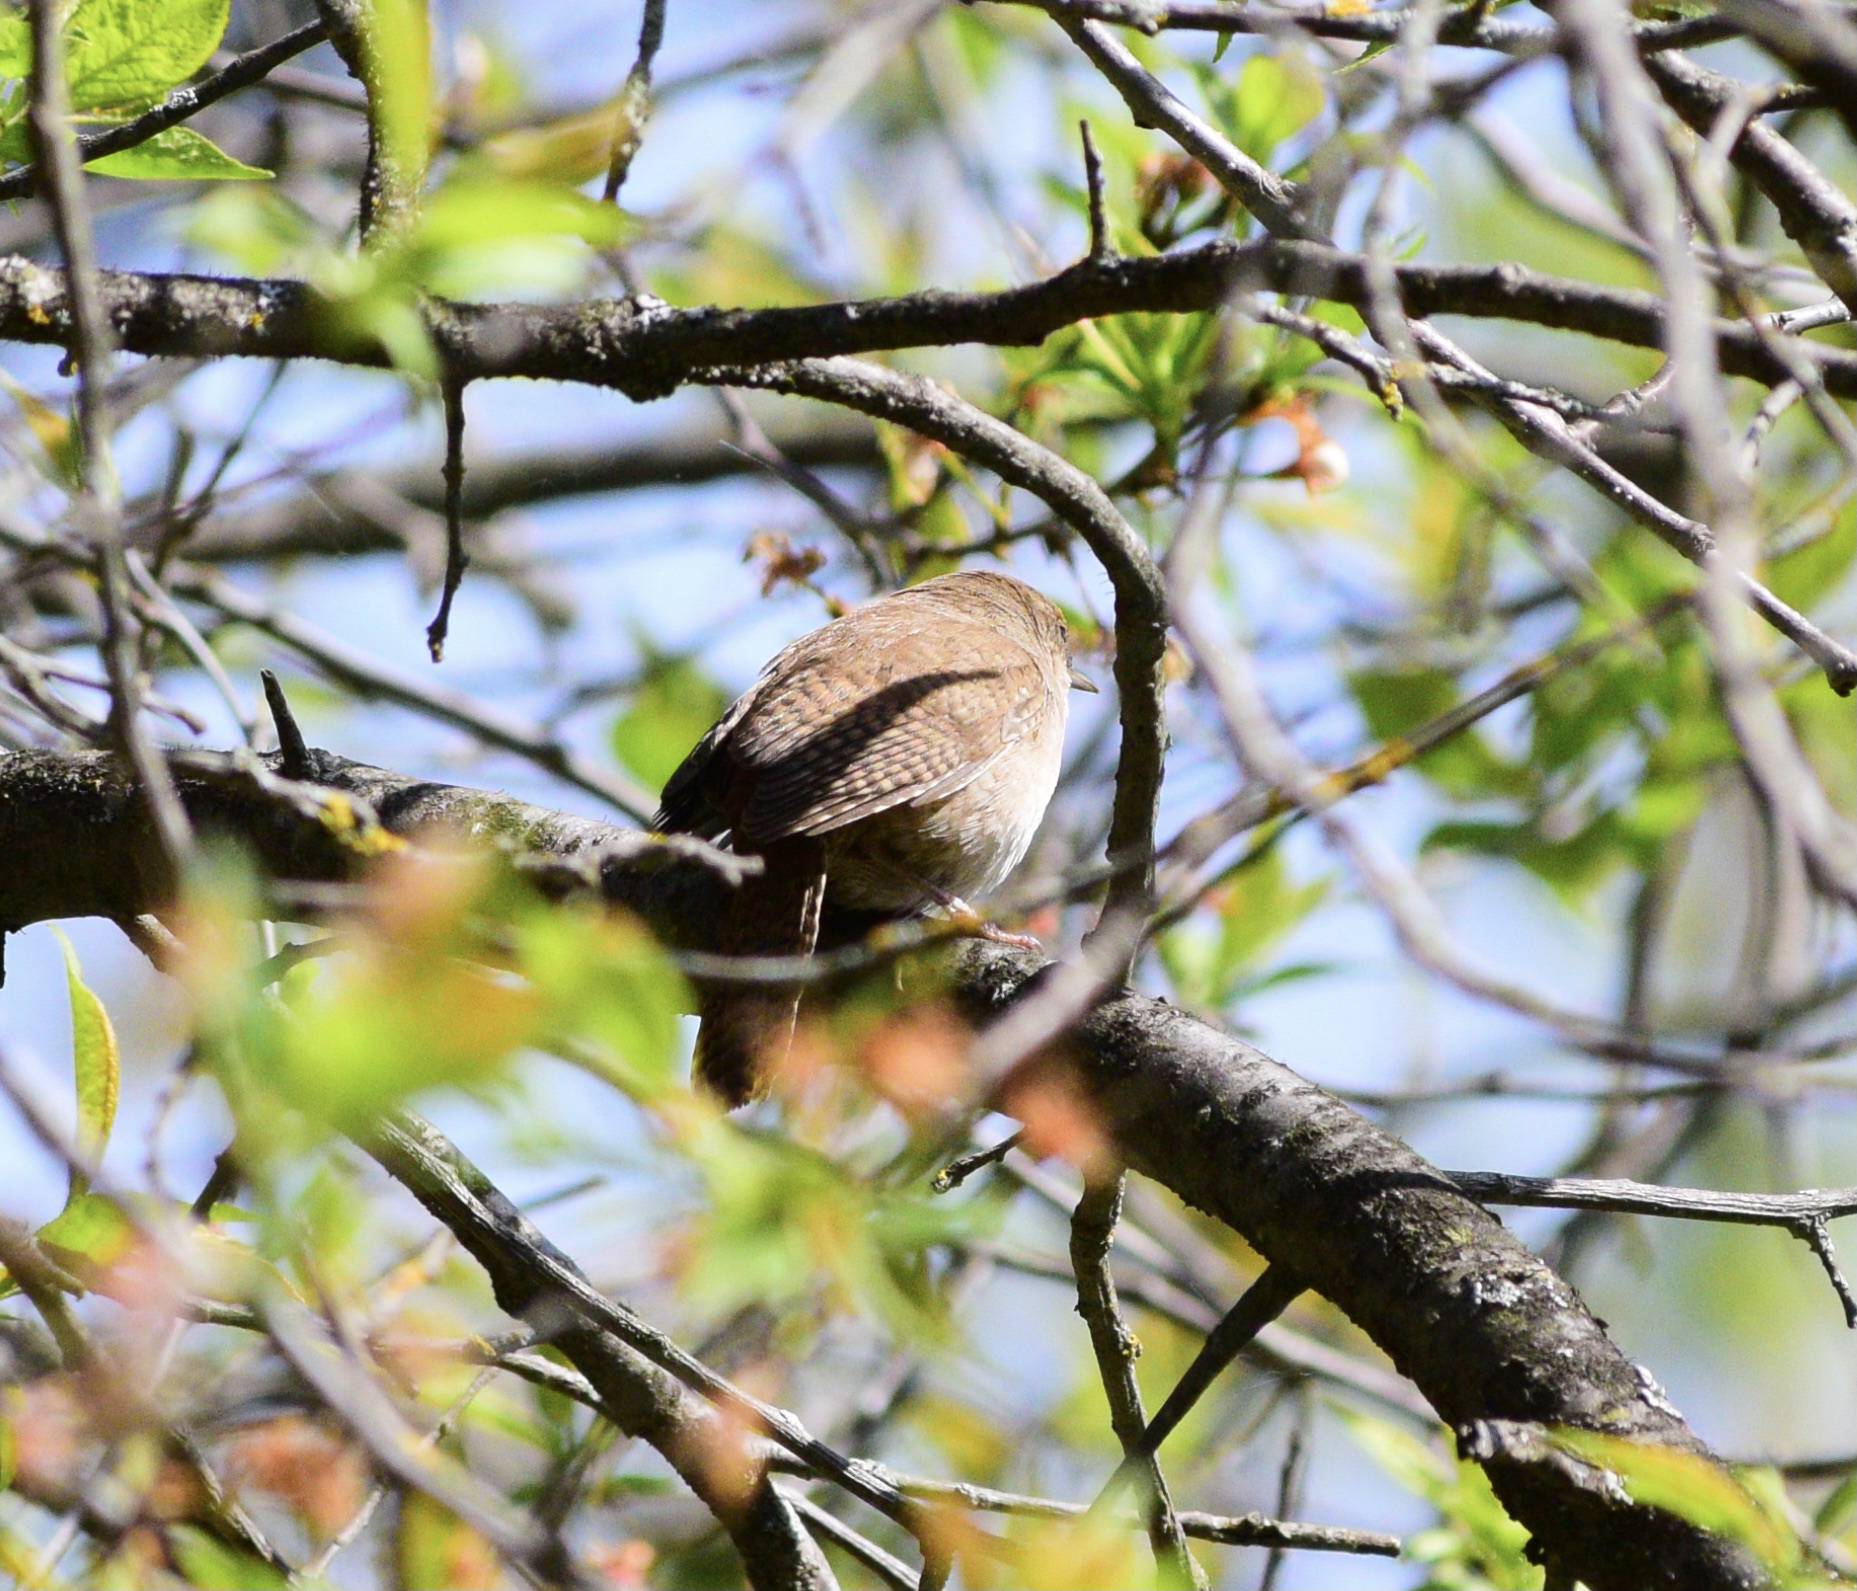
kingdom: Animalia
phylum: Chordata
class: Aves
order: Passeriformes
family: Troglodytidae
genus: Troglodytes
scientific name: Troglodytes aedon
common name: House wren
